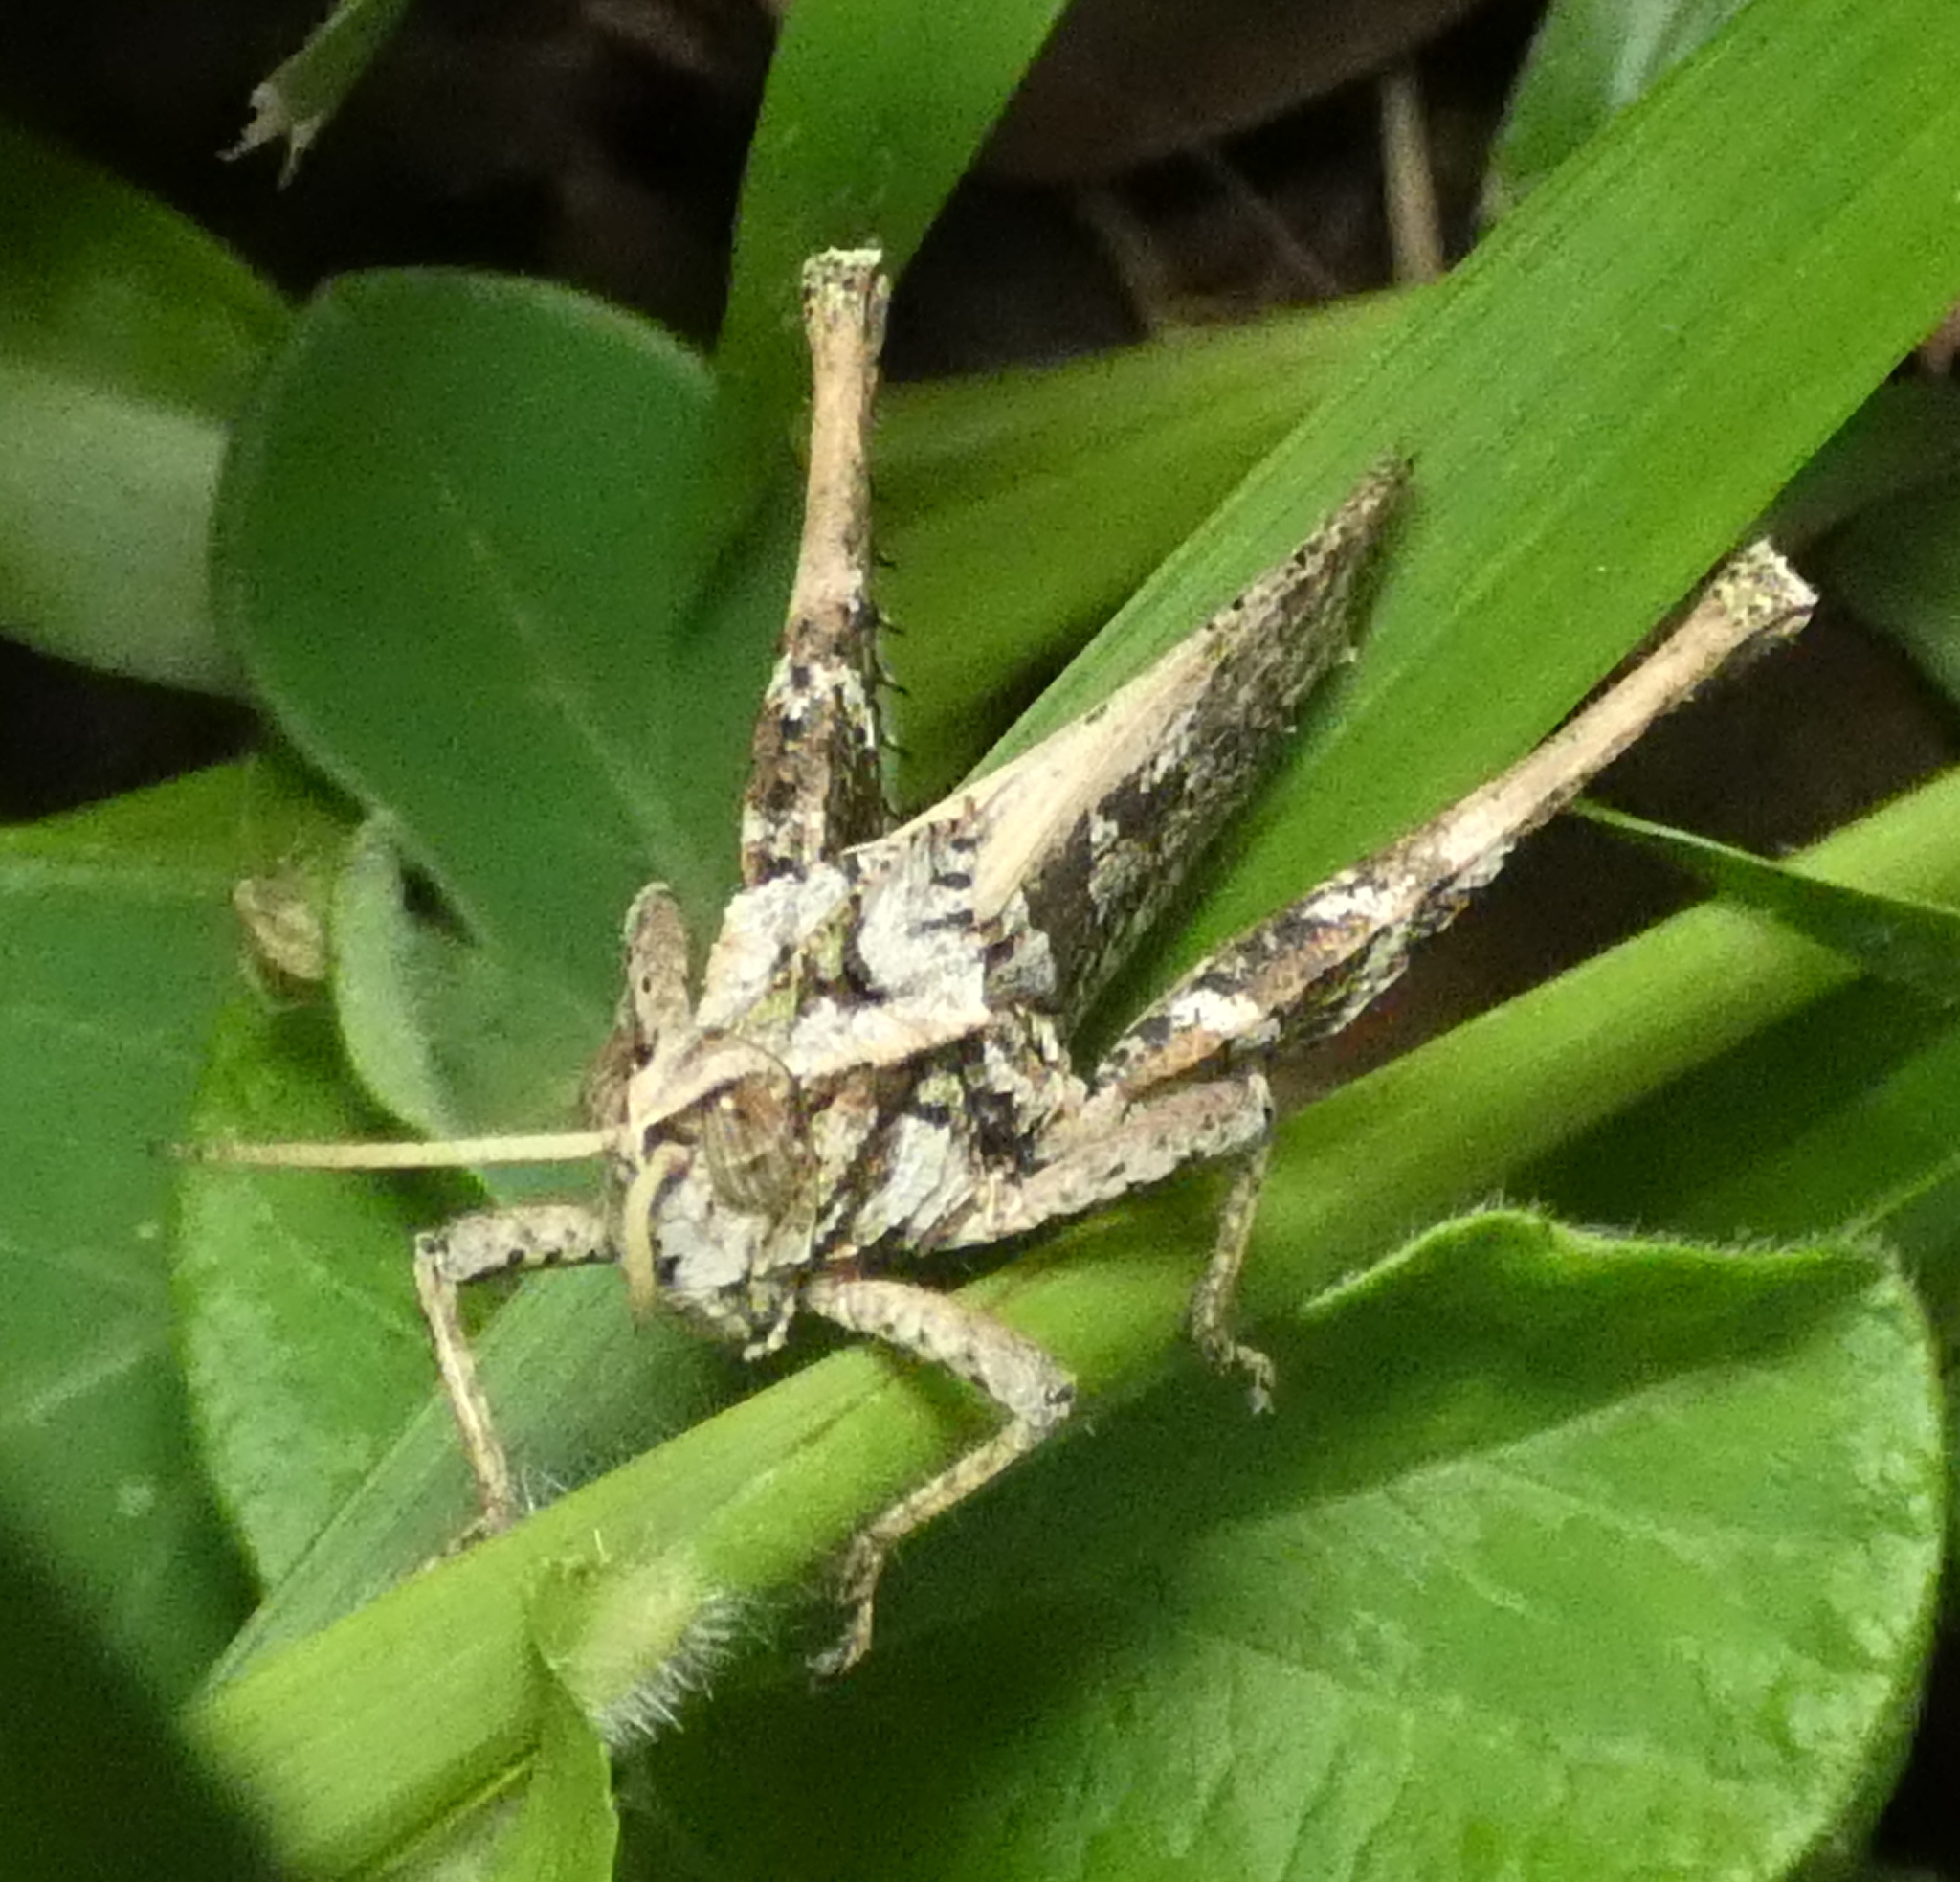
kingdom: Animalia
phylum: Arthropoda
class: Insecta
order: Orthoptera
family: Romaleidae
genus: Xyleus
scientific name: Xyleus discoideus
